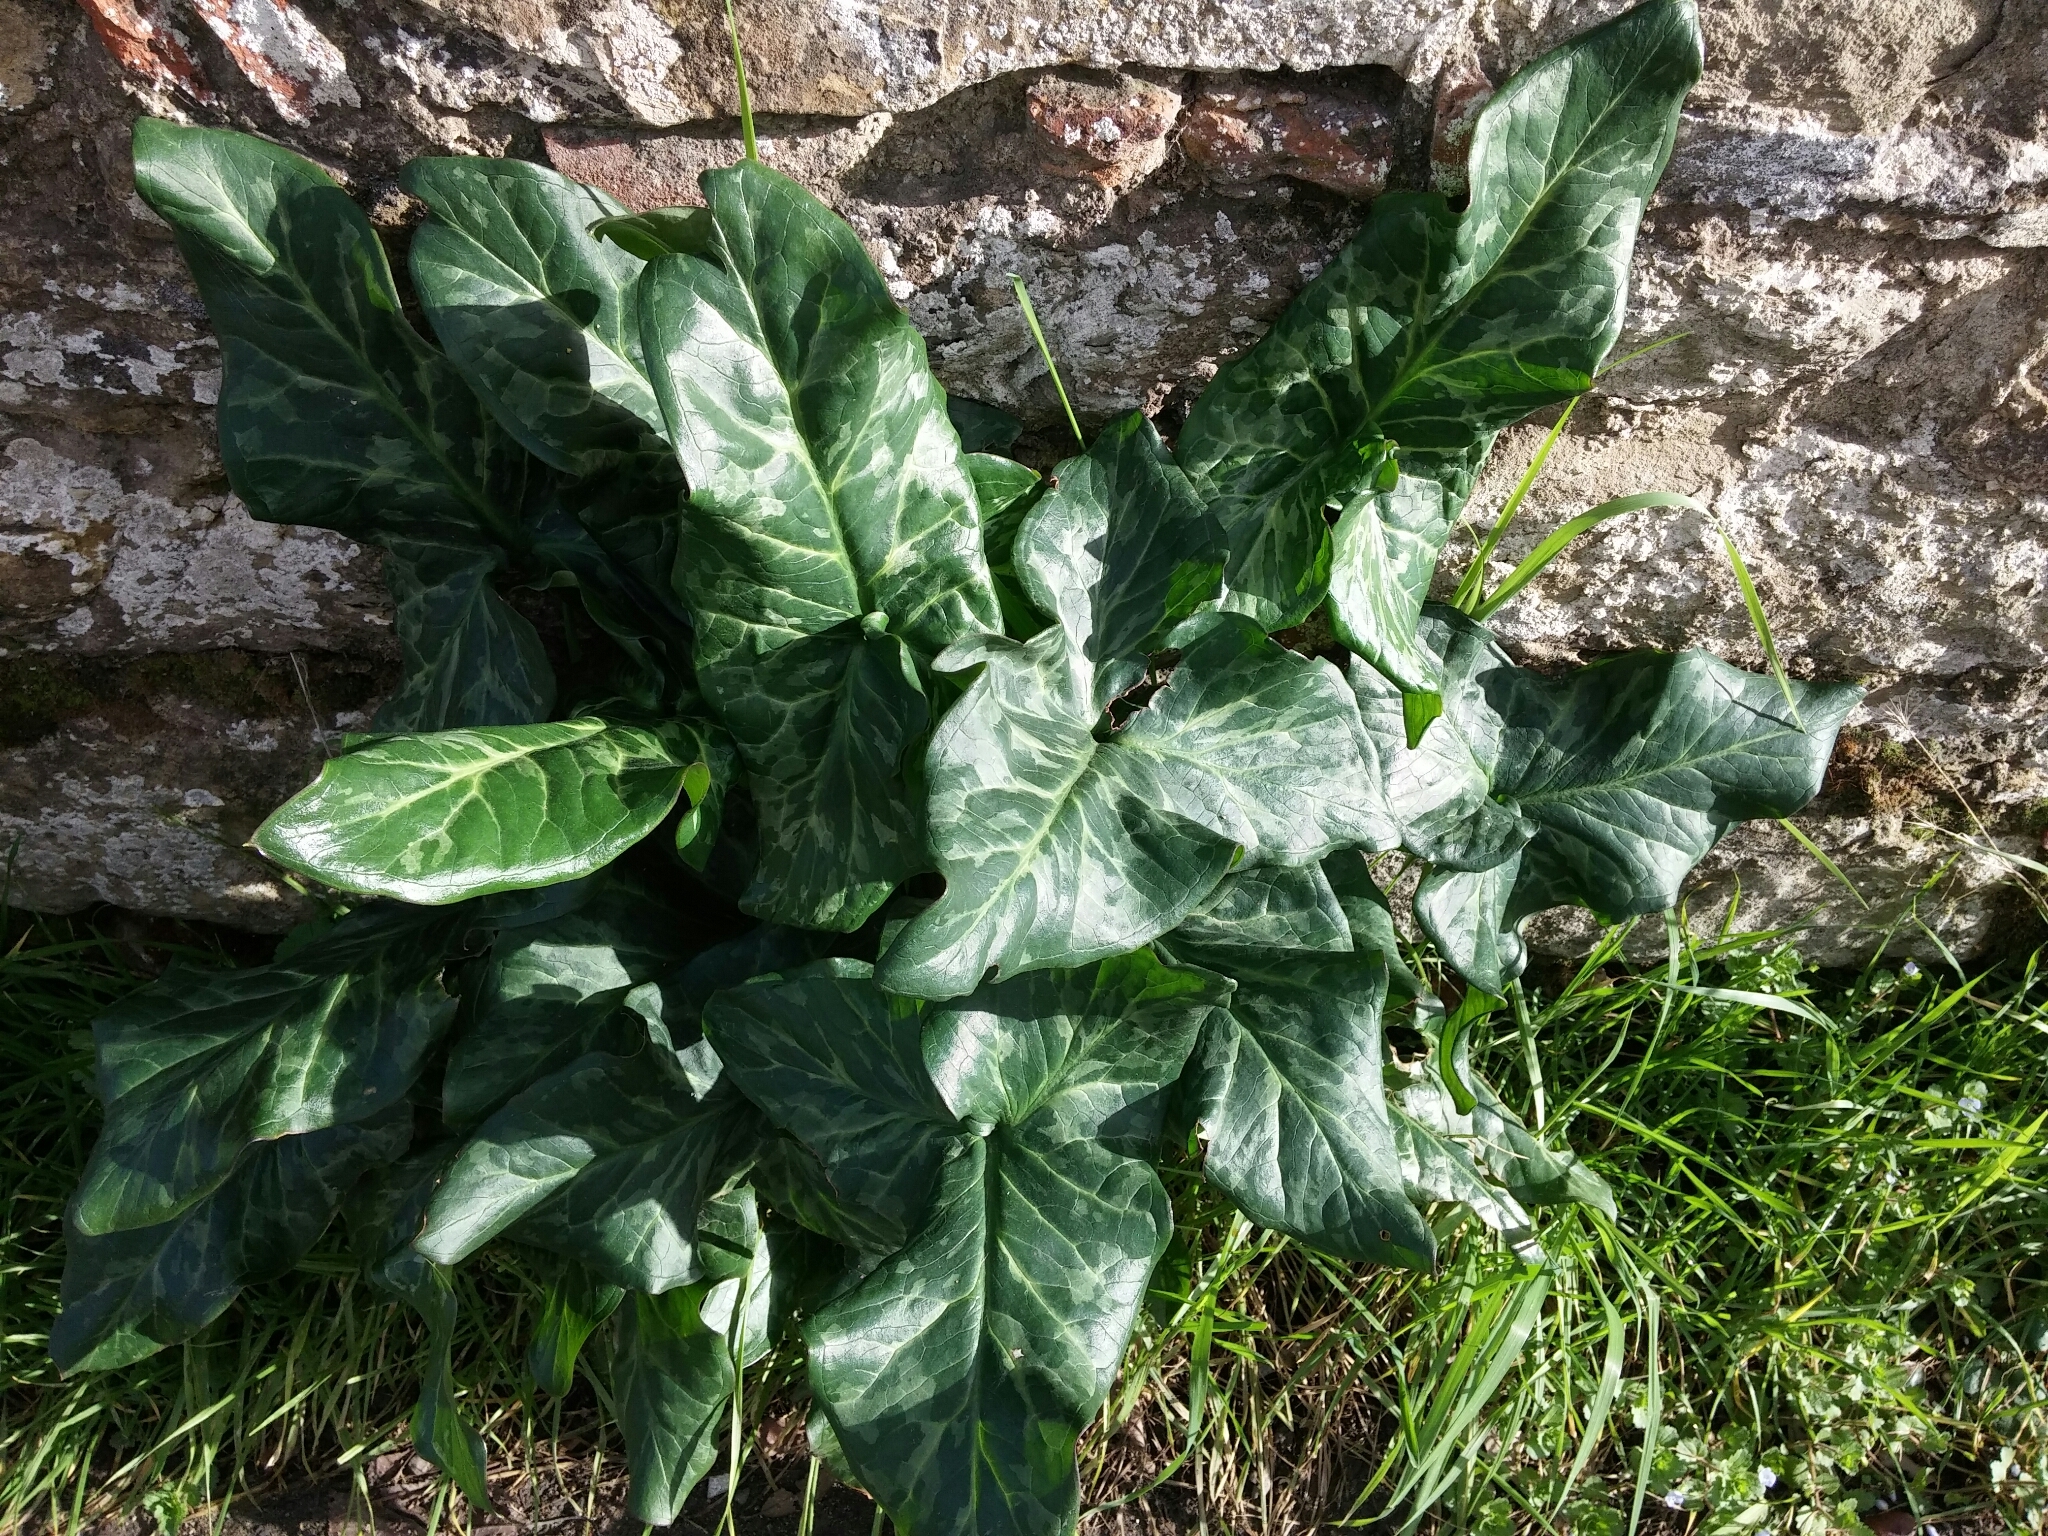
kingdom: Plantae
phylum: Tracheophyta
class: Liliopsida
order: Alismatales
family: Araceae
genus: Arum
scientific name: Arum italicum
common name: Italian lords-and-ladies
